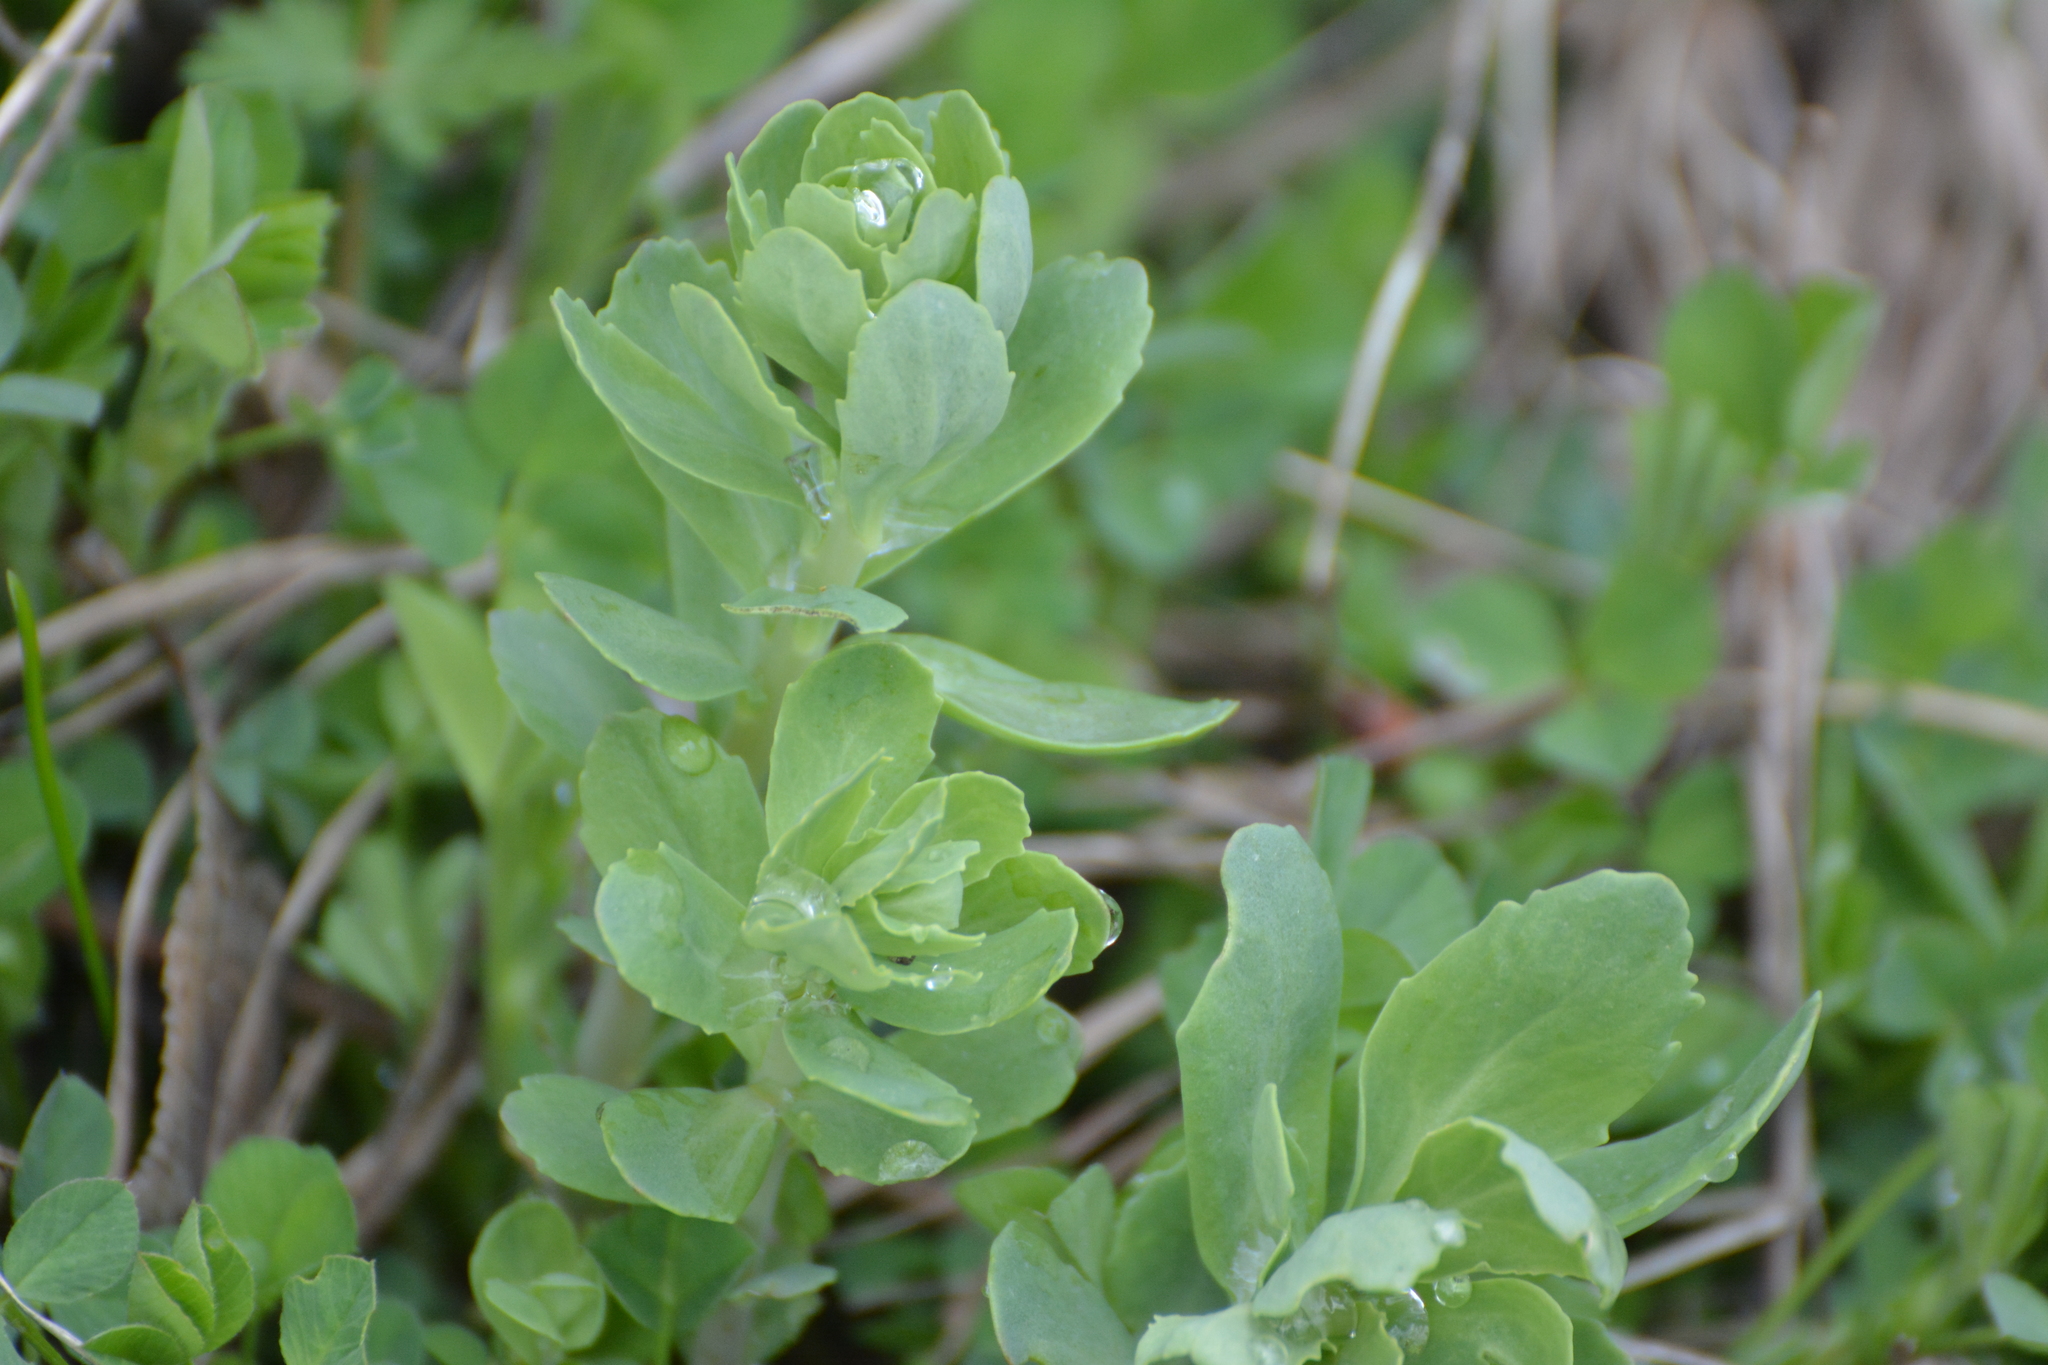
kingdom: Plantae
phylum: Tracheophyta
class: Magnoliopsida
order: Saxifragales
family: Crassulaceae
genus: Hylotelephium
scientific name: Hylotelephium telephium
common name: Live-forever
